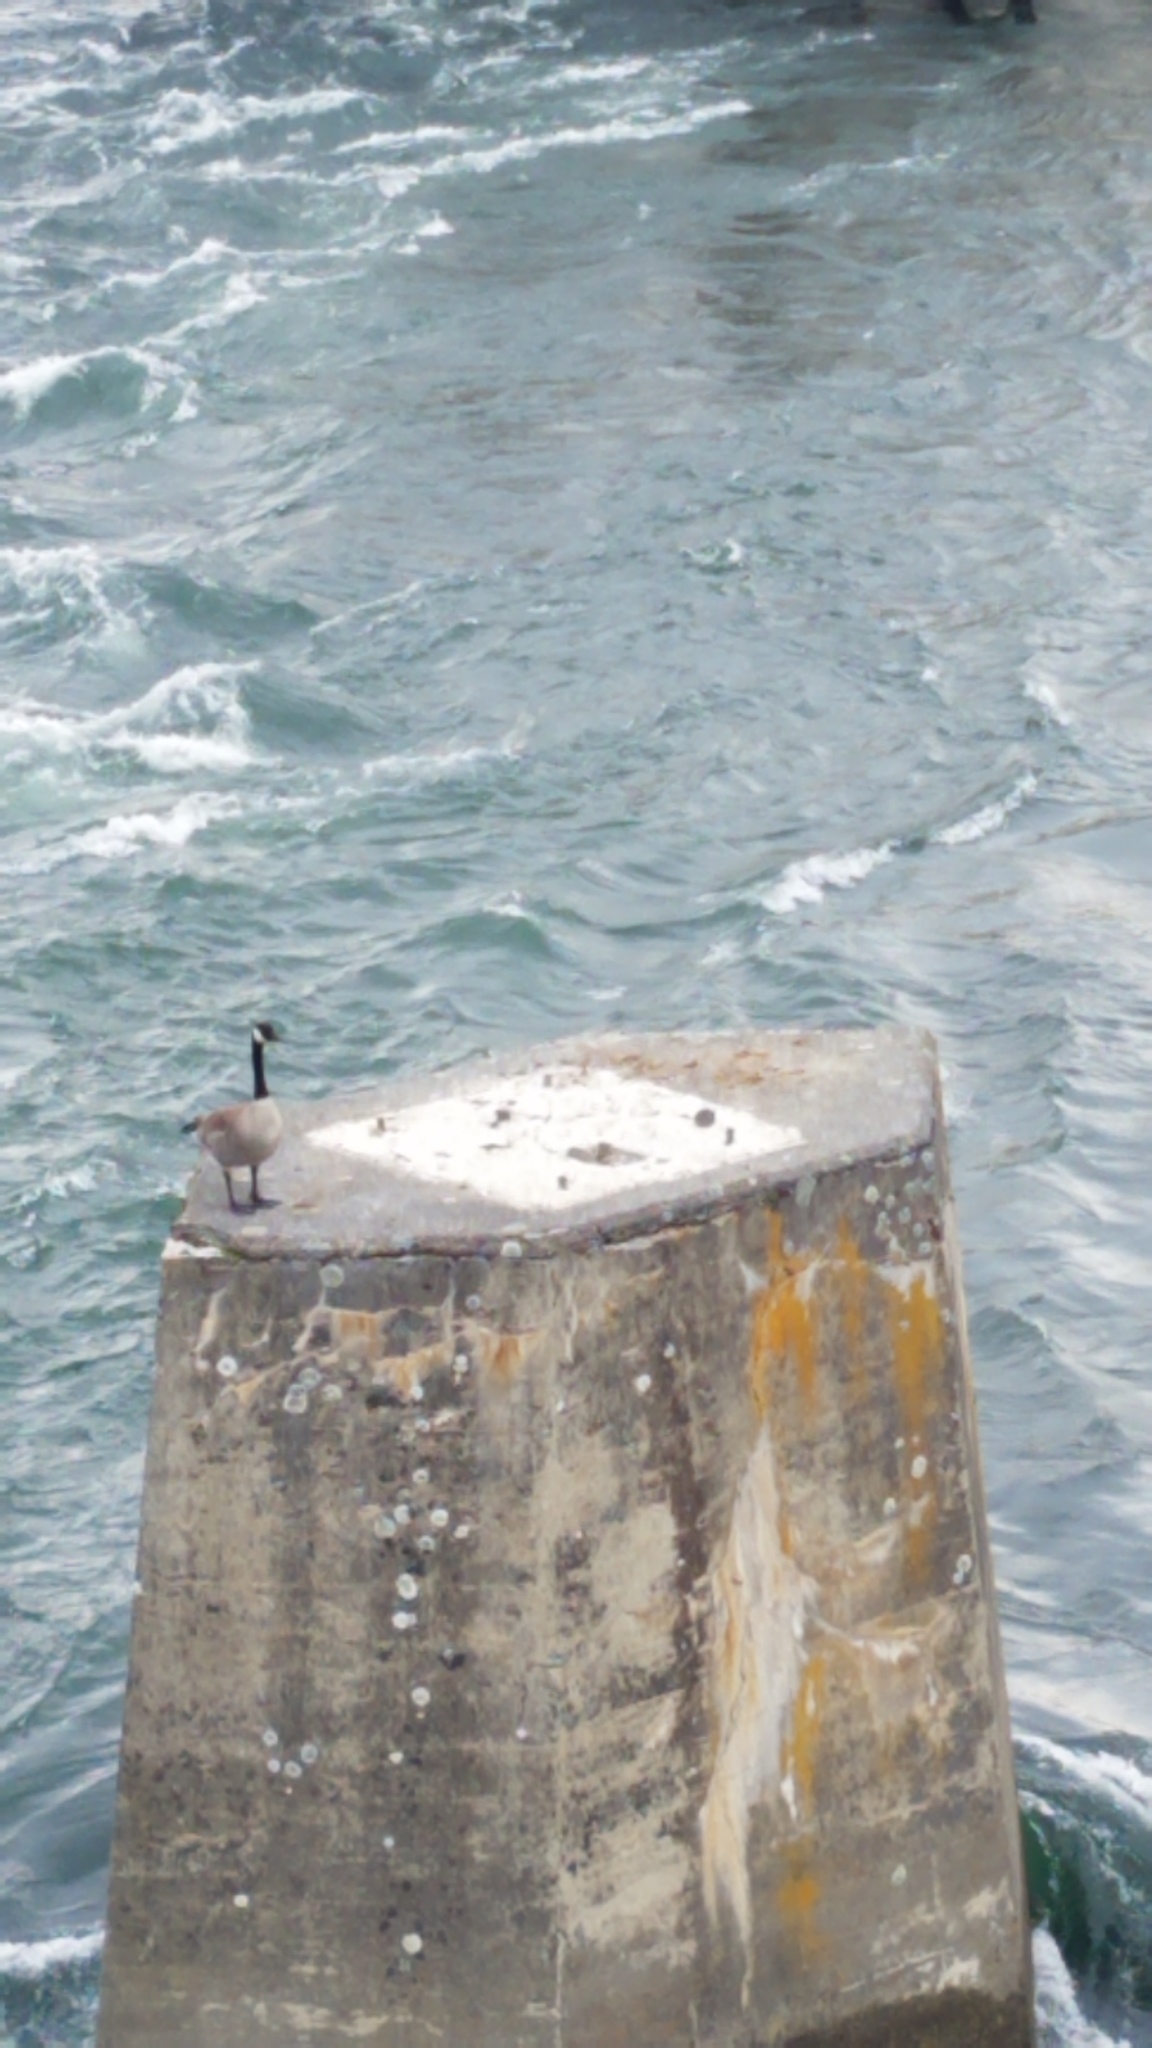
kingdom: Animalia
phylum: Chordata
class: Aves
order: Anseriformes
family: Anatidae
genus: Branta
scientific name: Branta canadensis
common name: Canada goose
